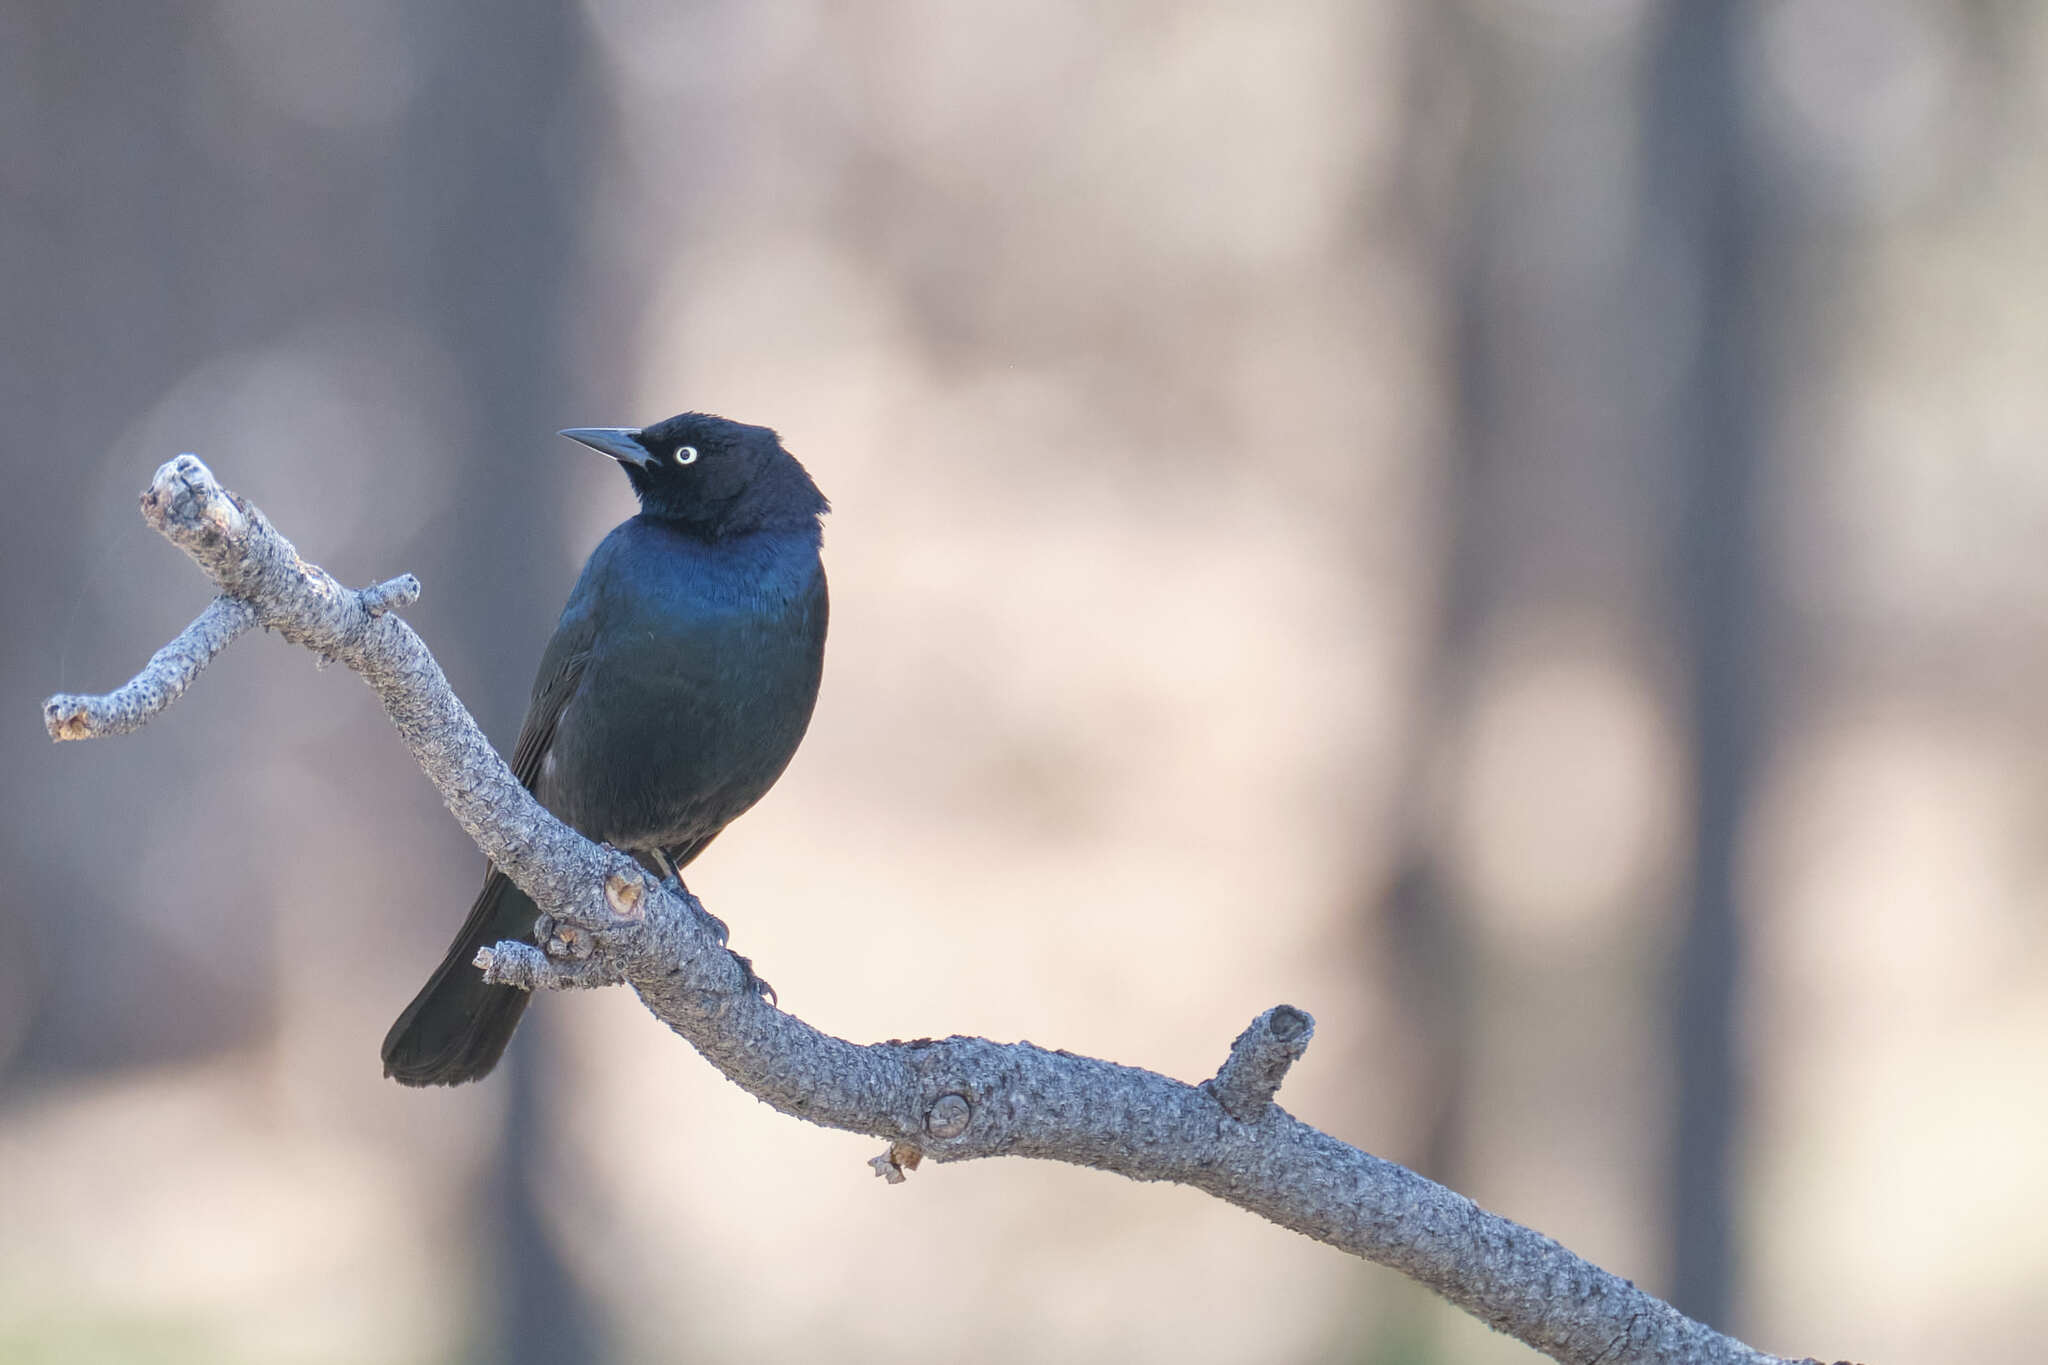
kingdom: Animalia
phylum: Chordata
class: Aves
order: Passeriformes
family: Icteridae
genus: Euphagus
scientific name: Euphagus cyanocephalus
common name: Brewer's blackbird
